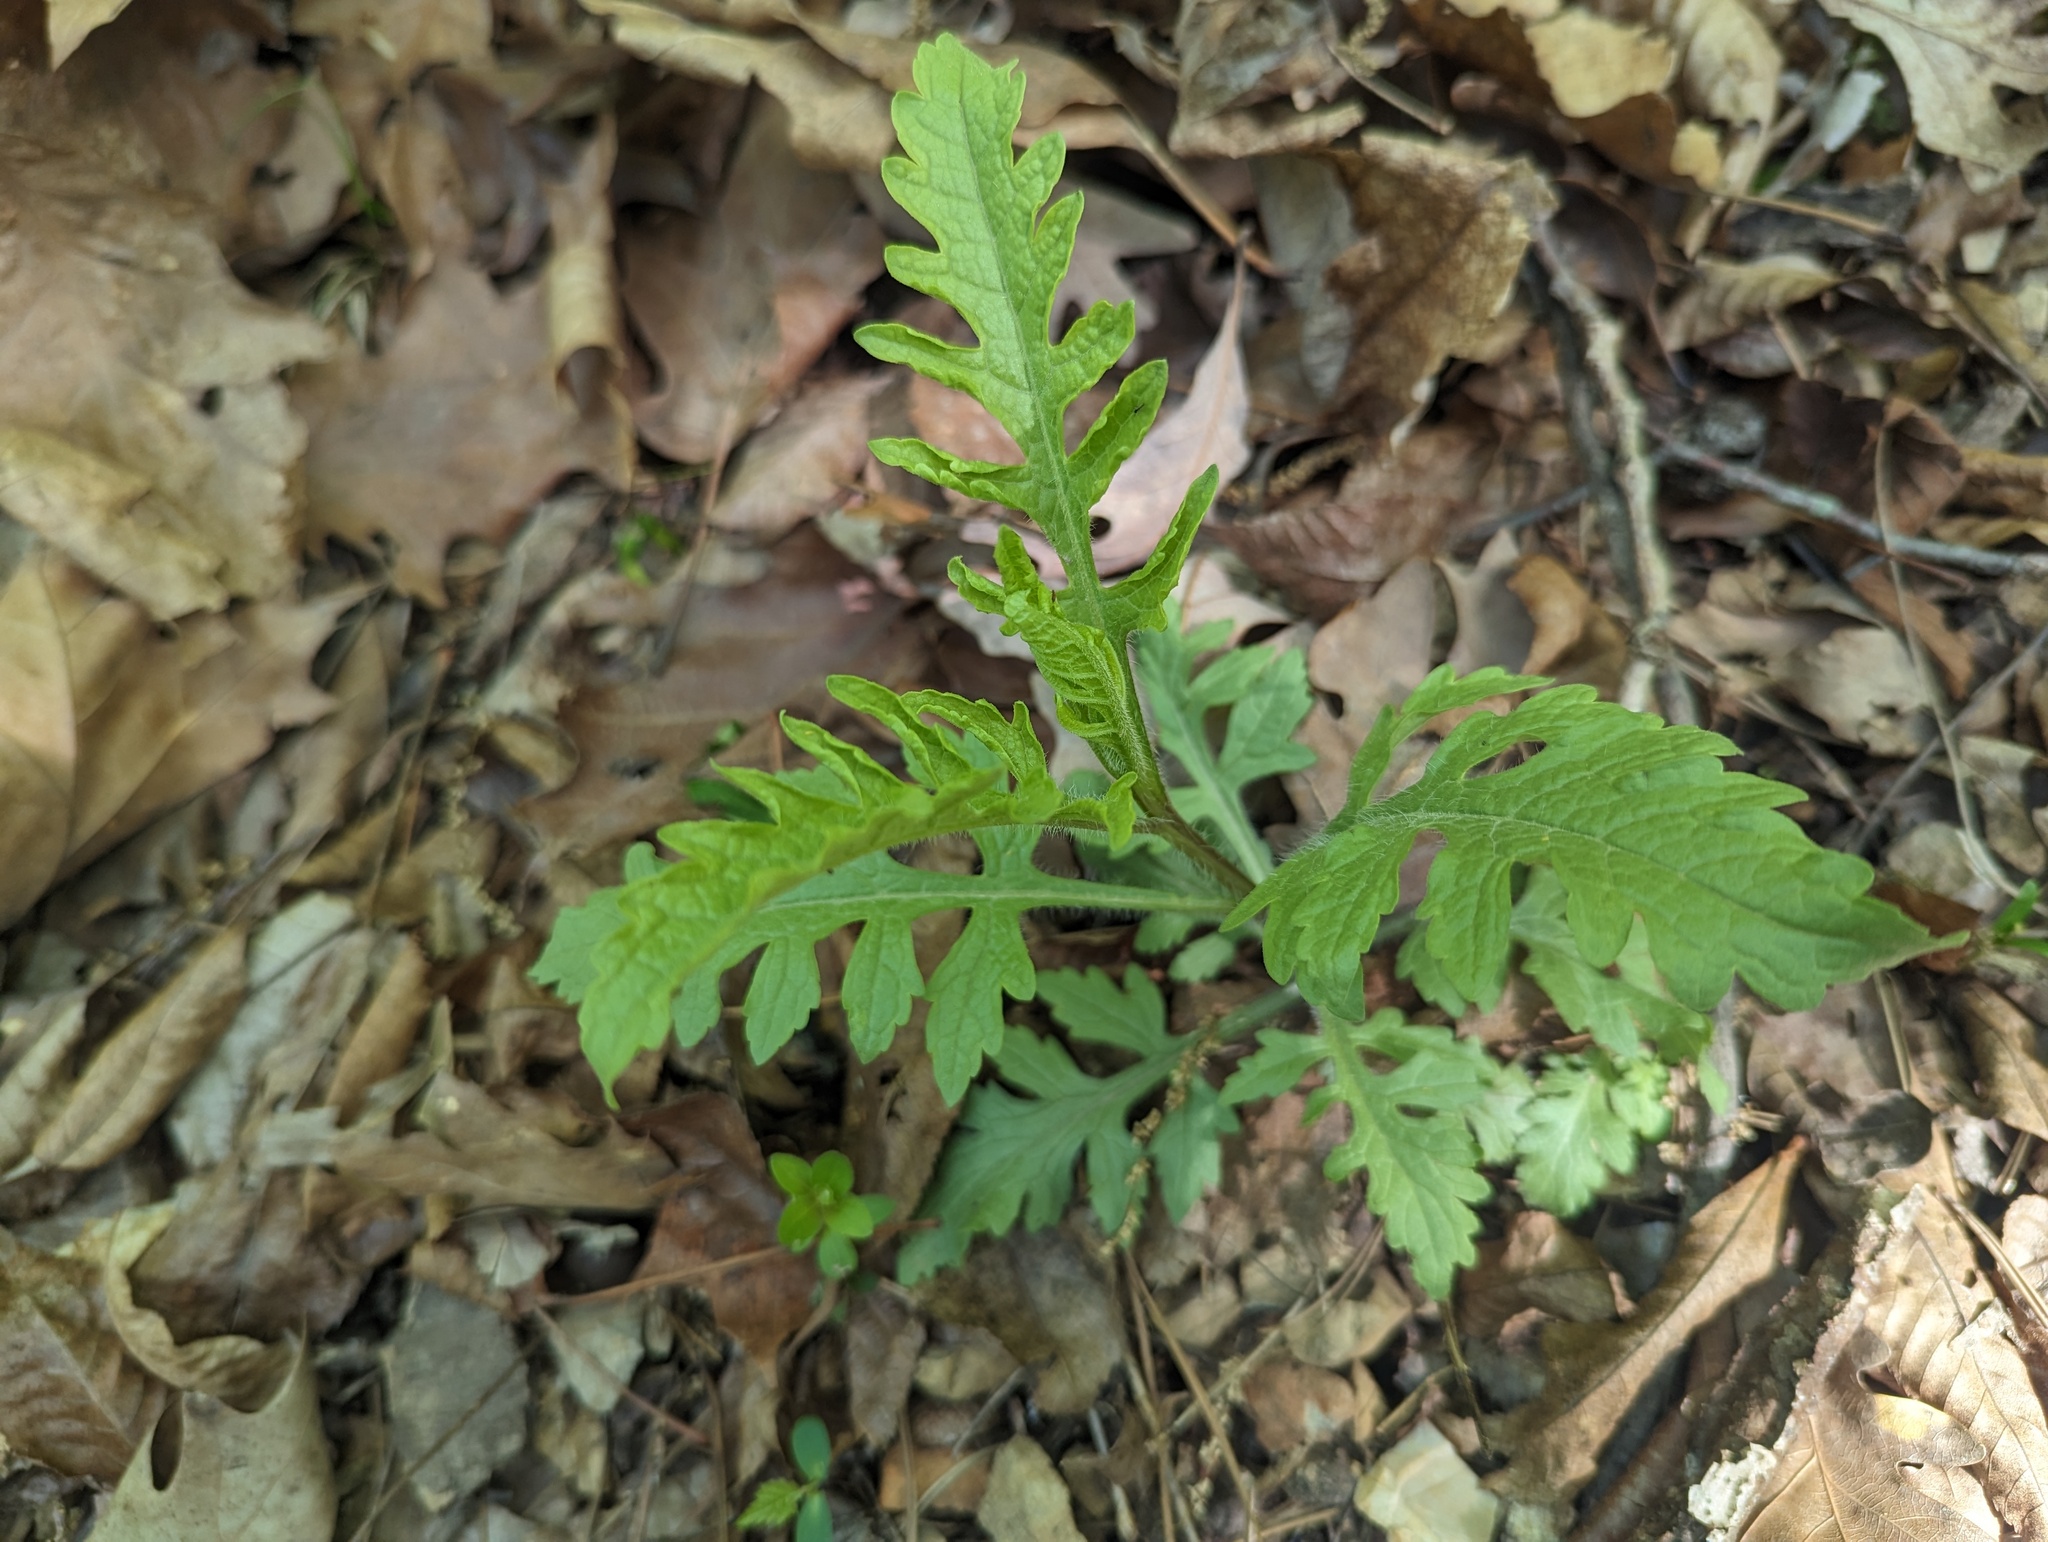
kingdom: Plantae
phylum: Tracheophyta
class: Magnoliopsida
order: Lamiales
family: Orobanchaceae
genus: Aureolaria
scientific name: Aureolaria flava
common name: Smooth false foxglove
